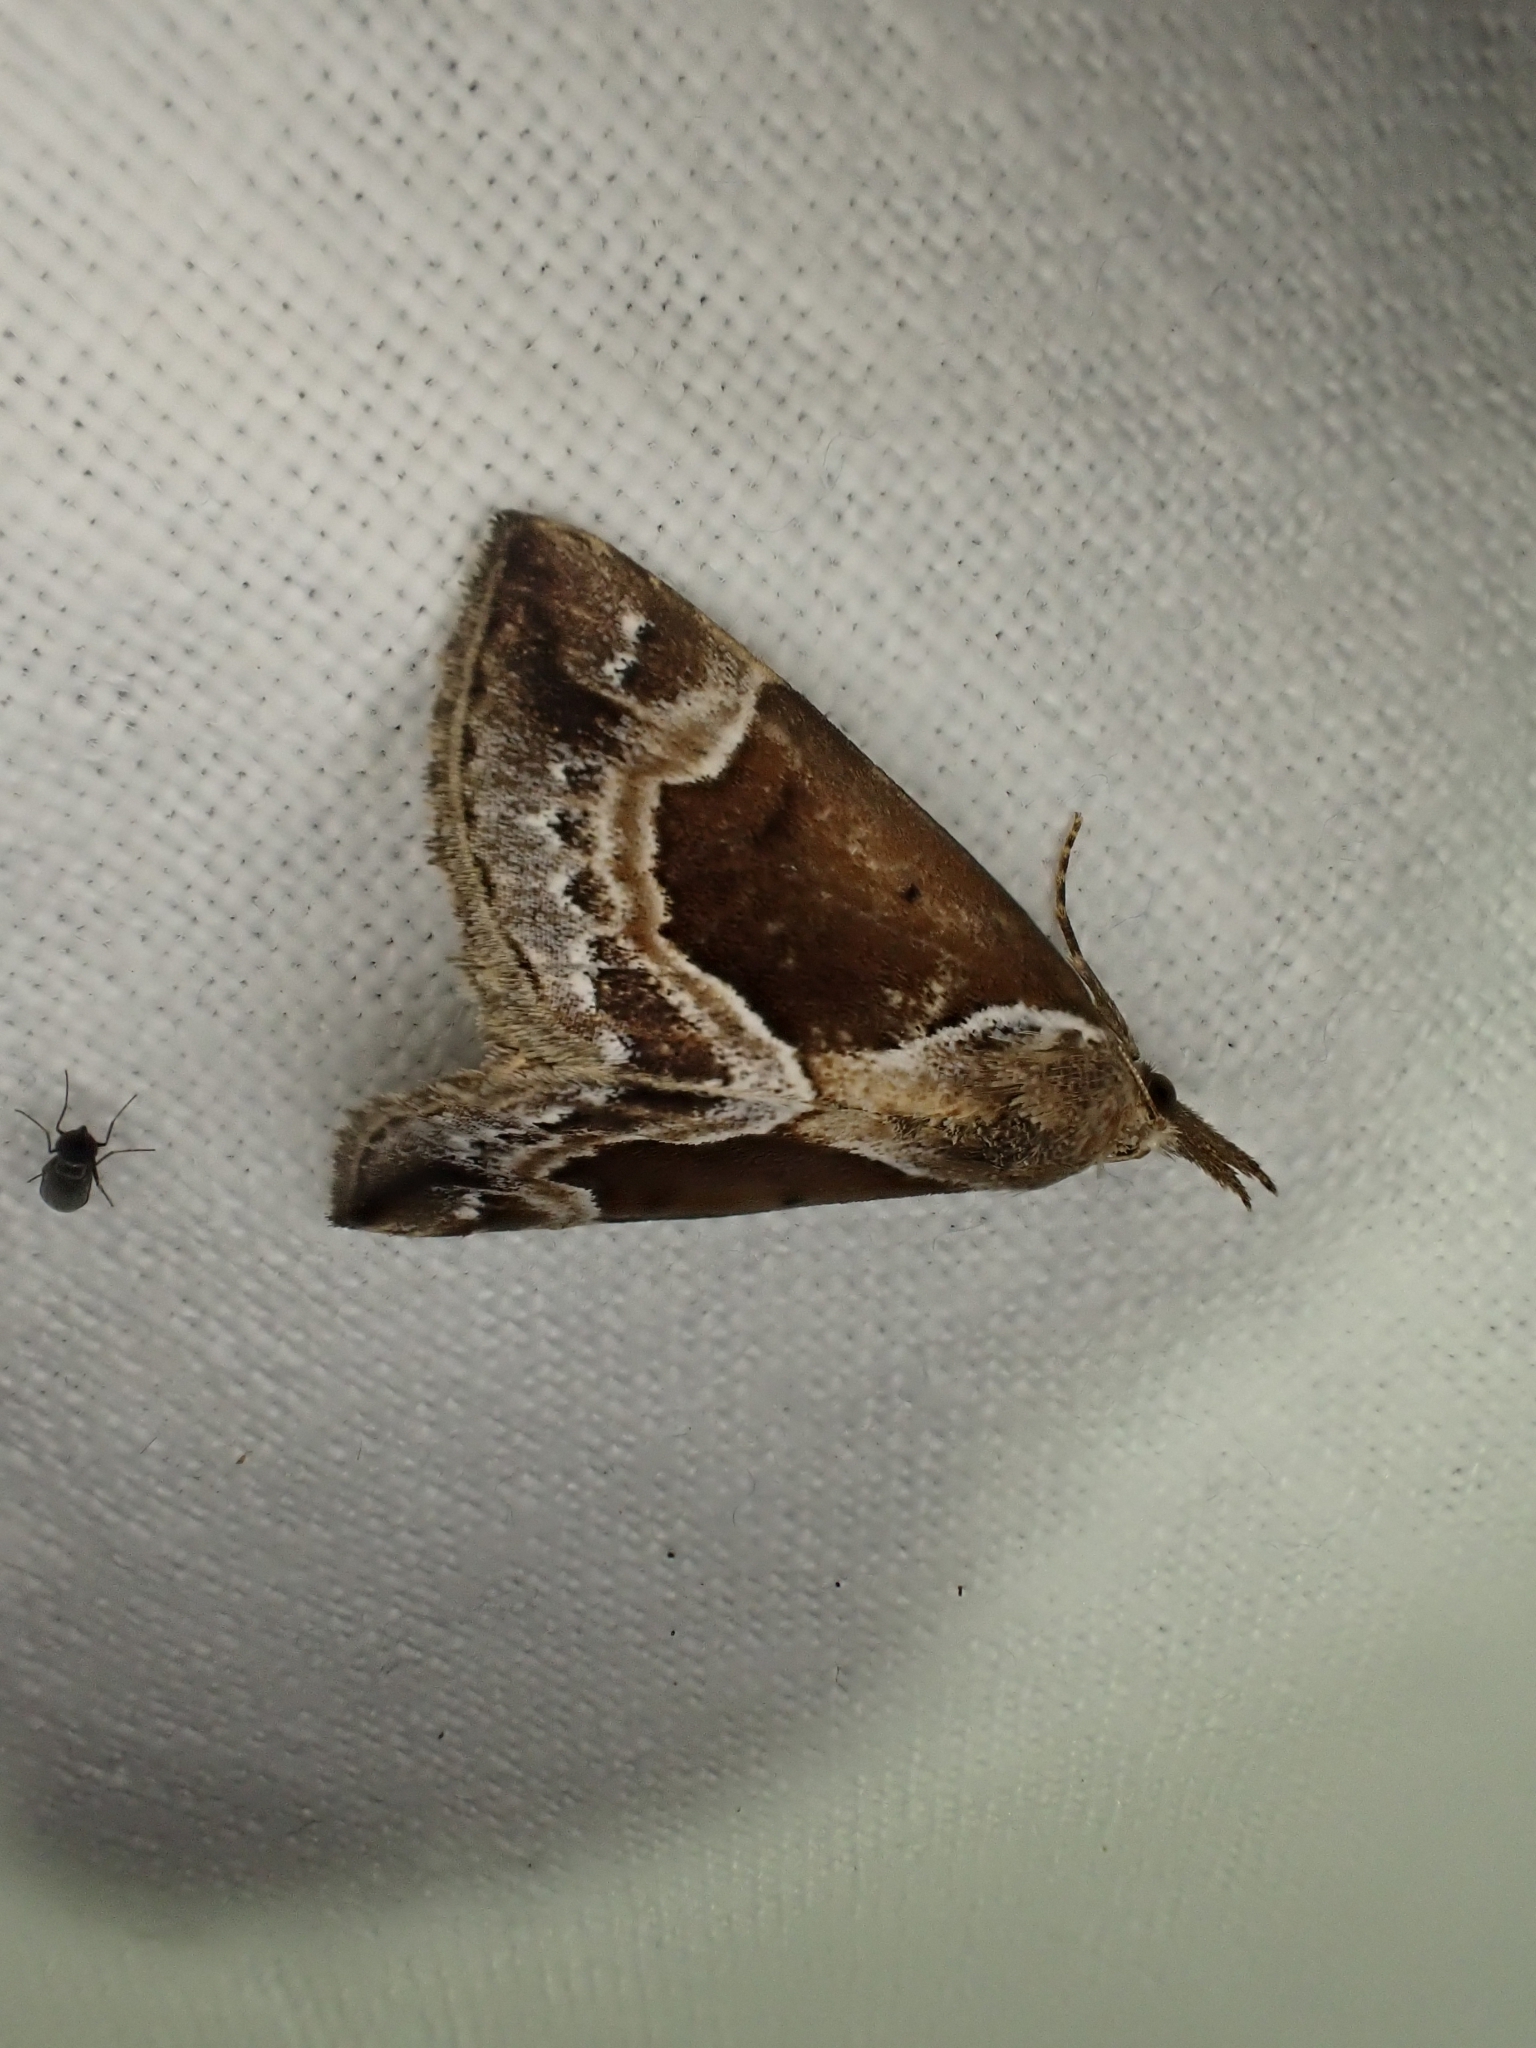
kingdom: Animalia
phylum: Arthropoda
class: Insecta
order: Lepidoptera
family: Erebidae
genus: Hypena
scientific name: Hypena crassalis
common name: Beautiful snout
